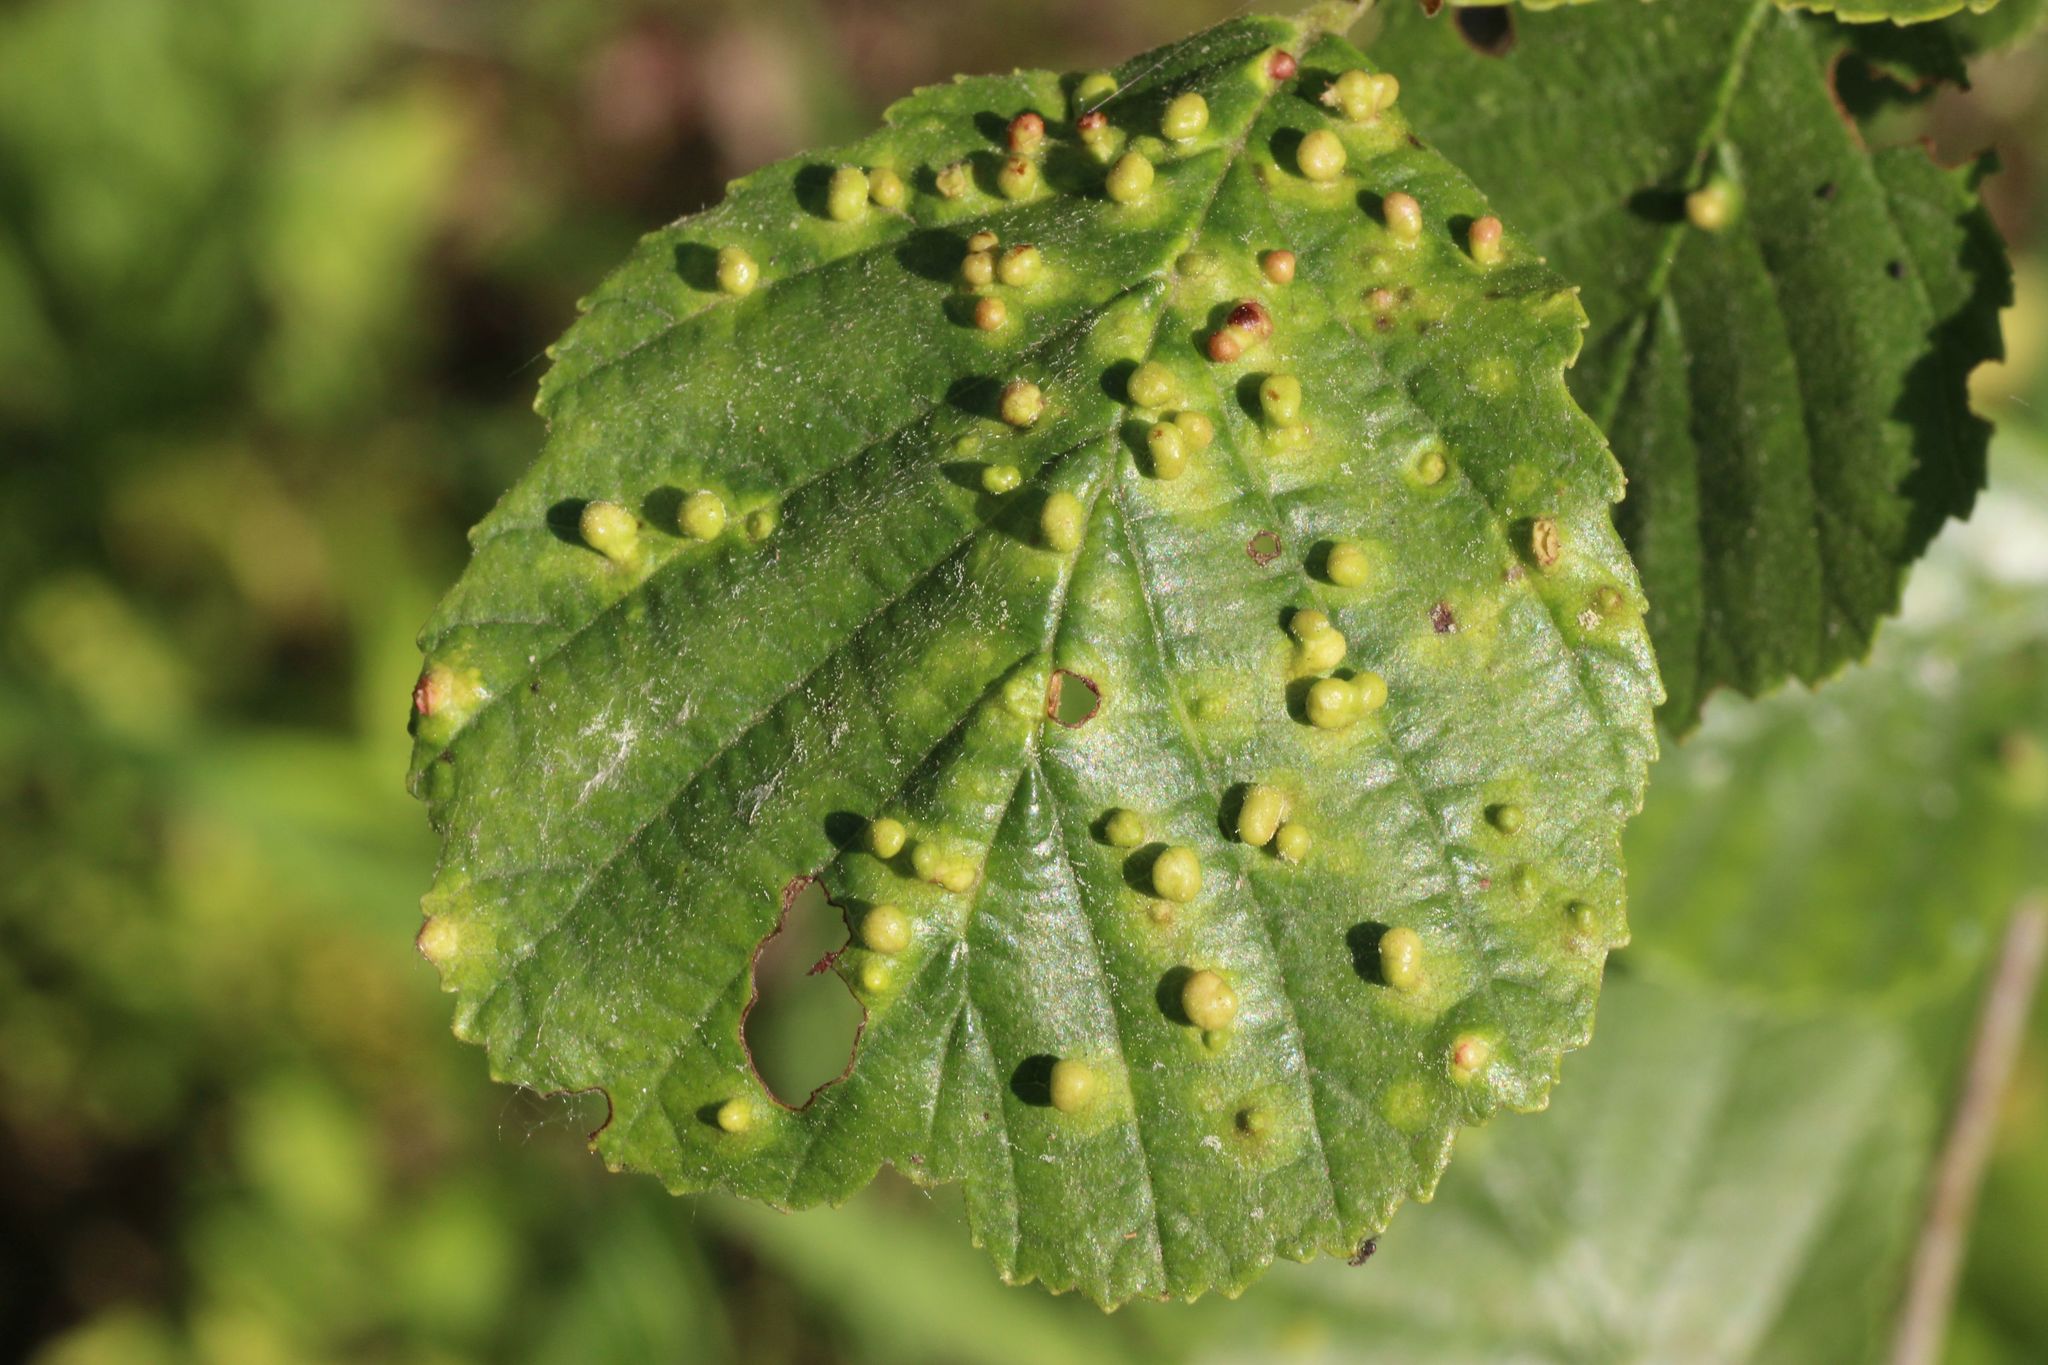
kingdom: Animalia
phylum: Arthropoda
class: Arachnida
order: Trombidiformes
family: Eriophyidae
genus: Eriophyes
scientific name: Eriophyes laevis
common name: Alder leaf gall mite
